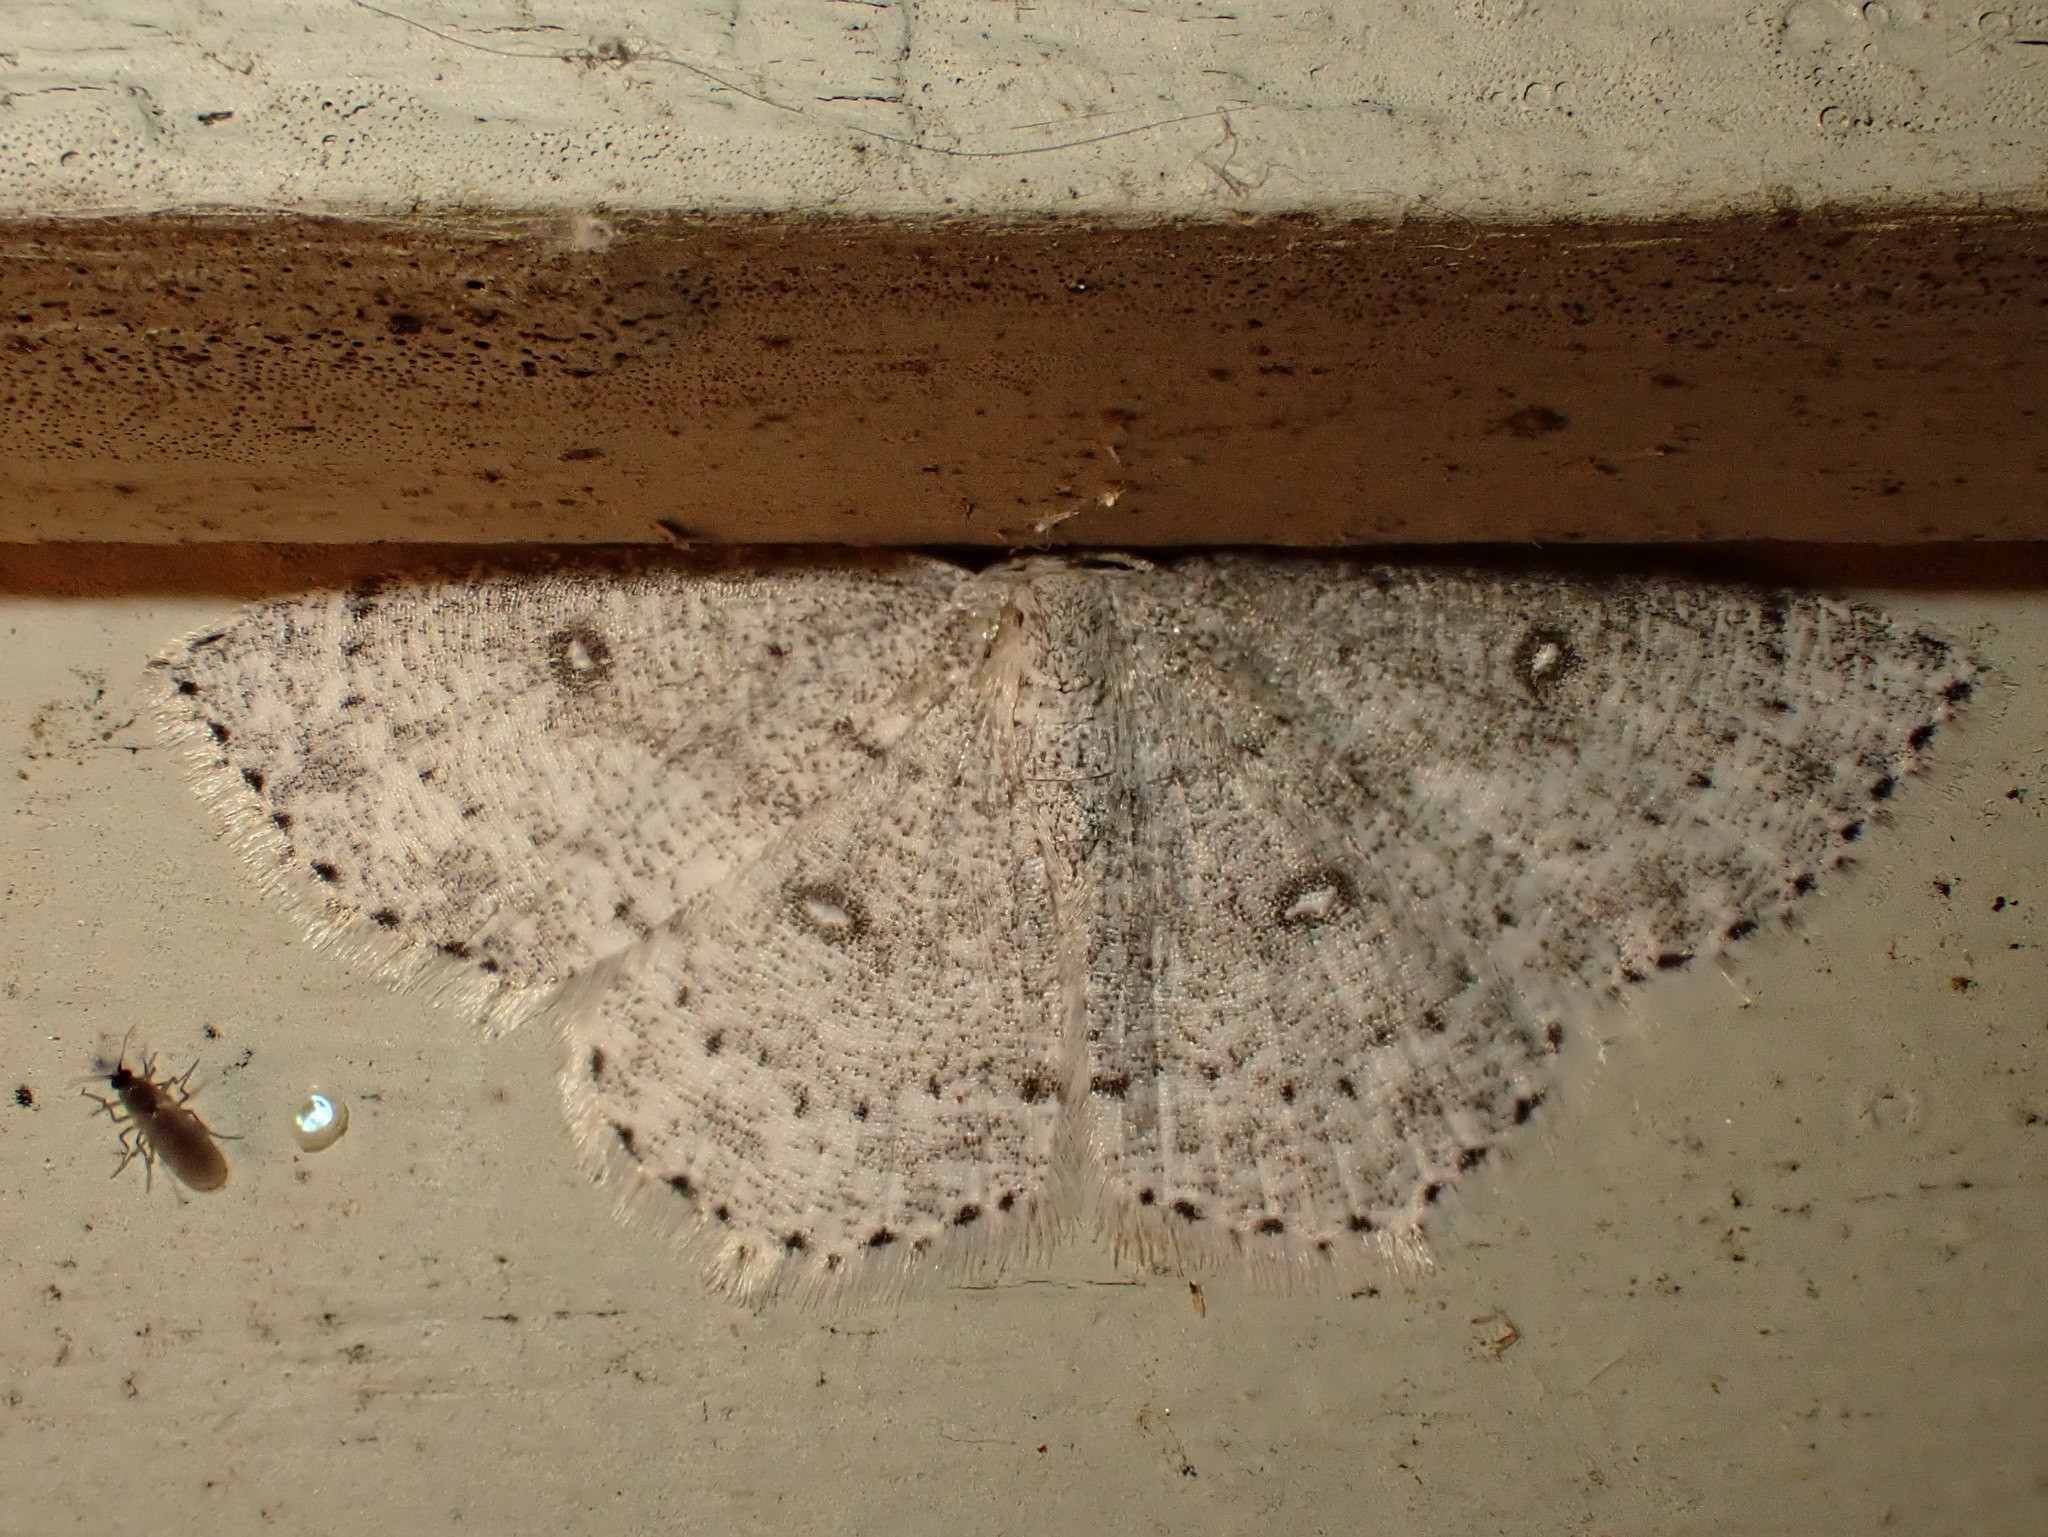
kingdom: Animalia
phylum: Arthropoda
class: Insecta
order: Lepidoptera
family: Geometridae
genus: Cyclophora
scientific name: Cyclophora pendulinaria
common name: Sweet fern geometer
